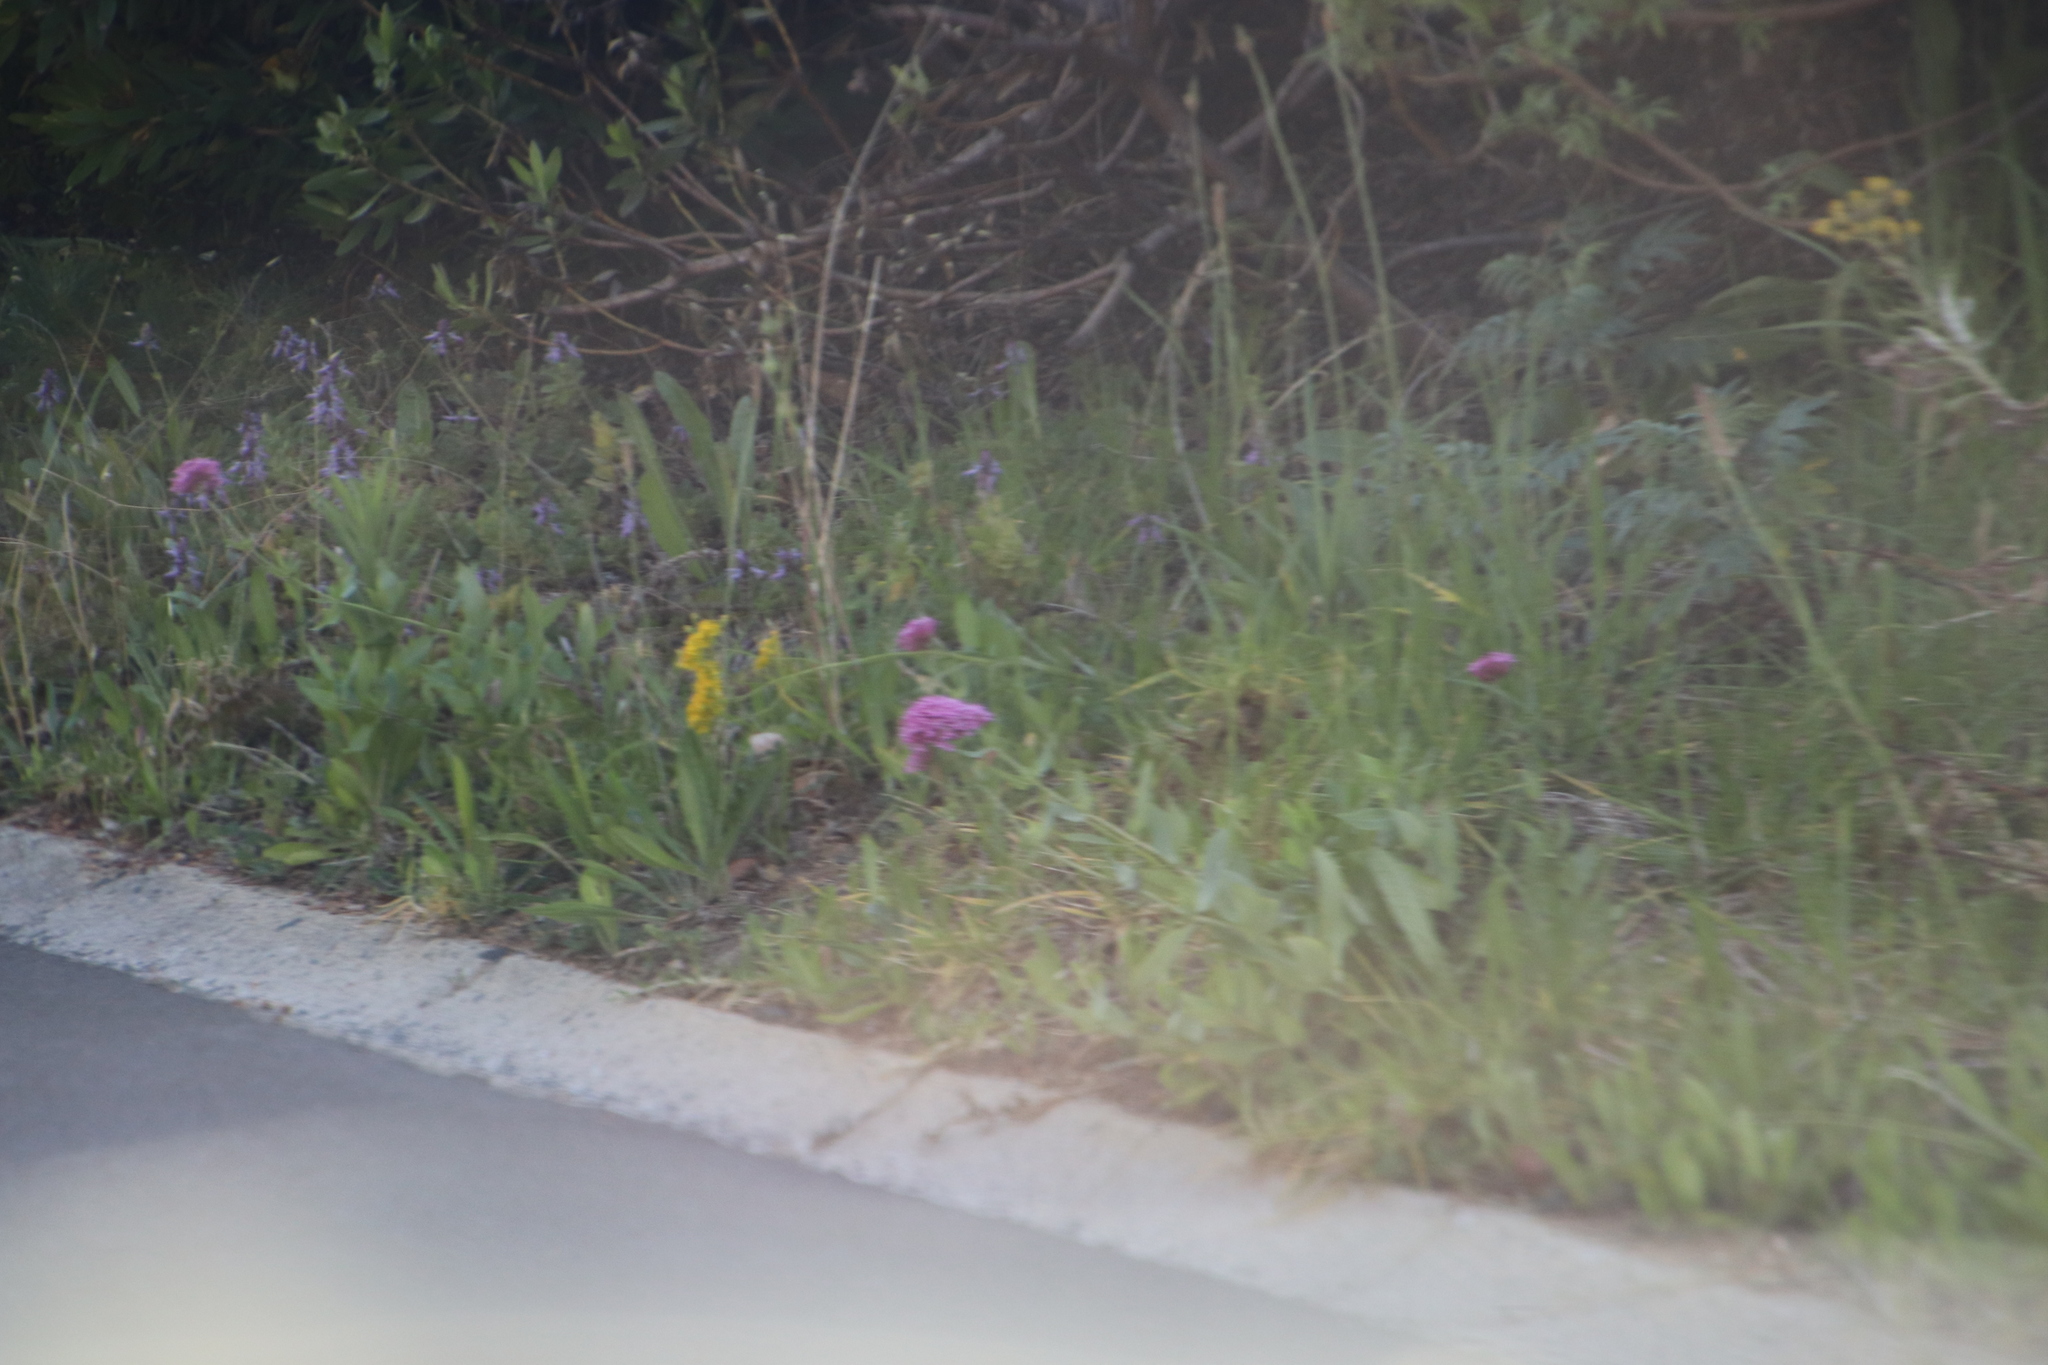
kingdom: Plantae
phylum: Tracheophyta
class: Magnoliopsida
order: Dipsacales
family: Caprifoliaceae
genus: Centranthus
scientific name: Centranthus ruber
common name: Red valerian
